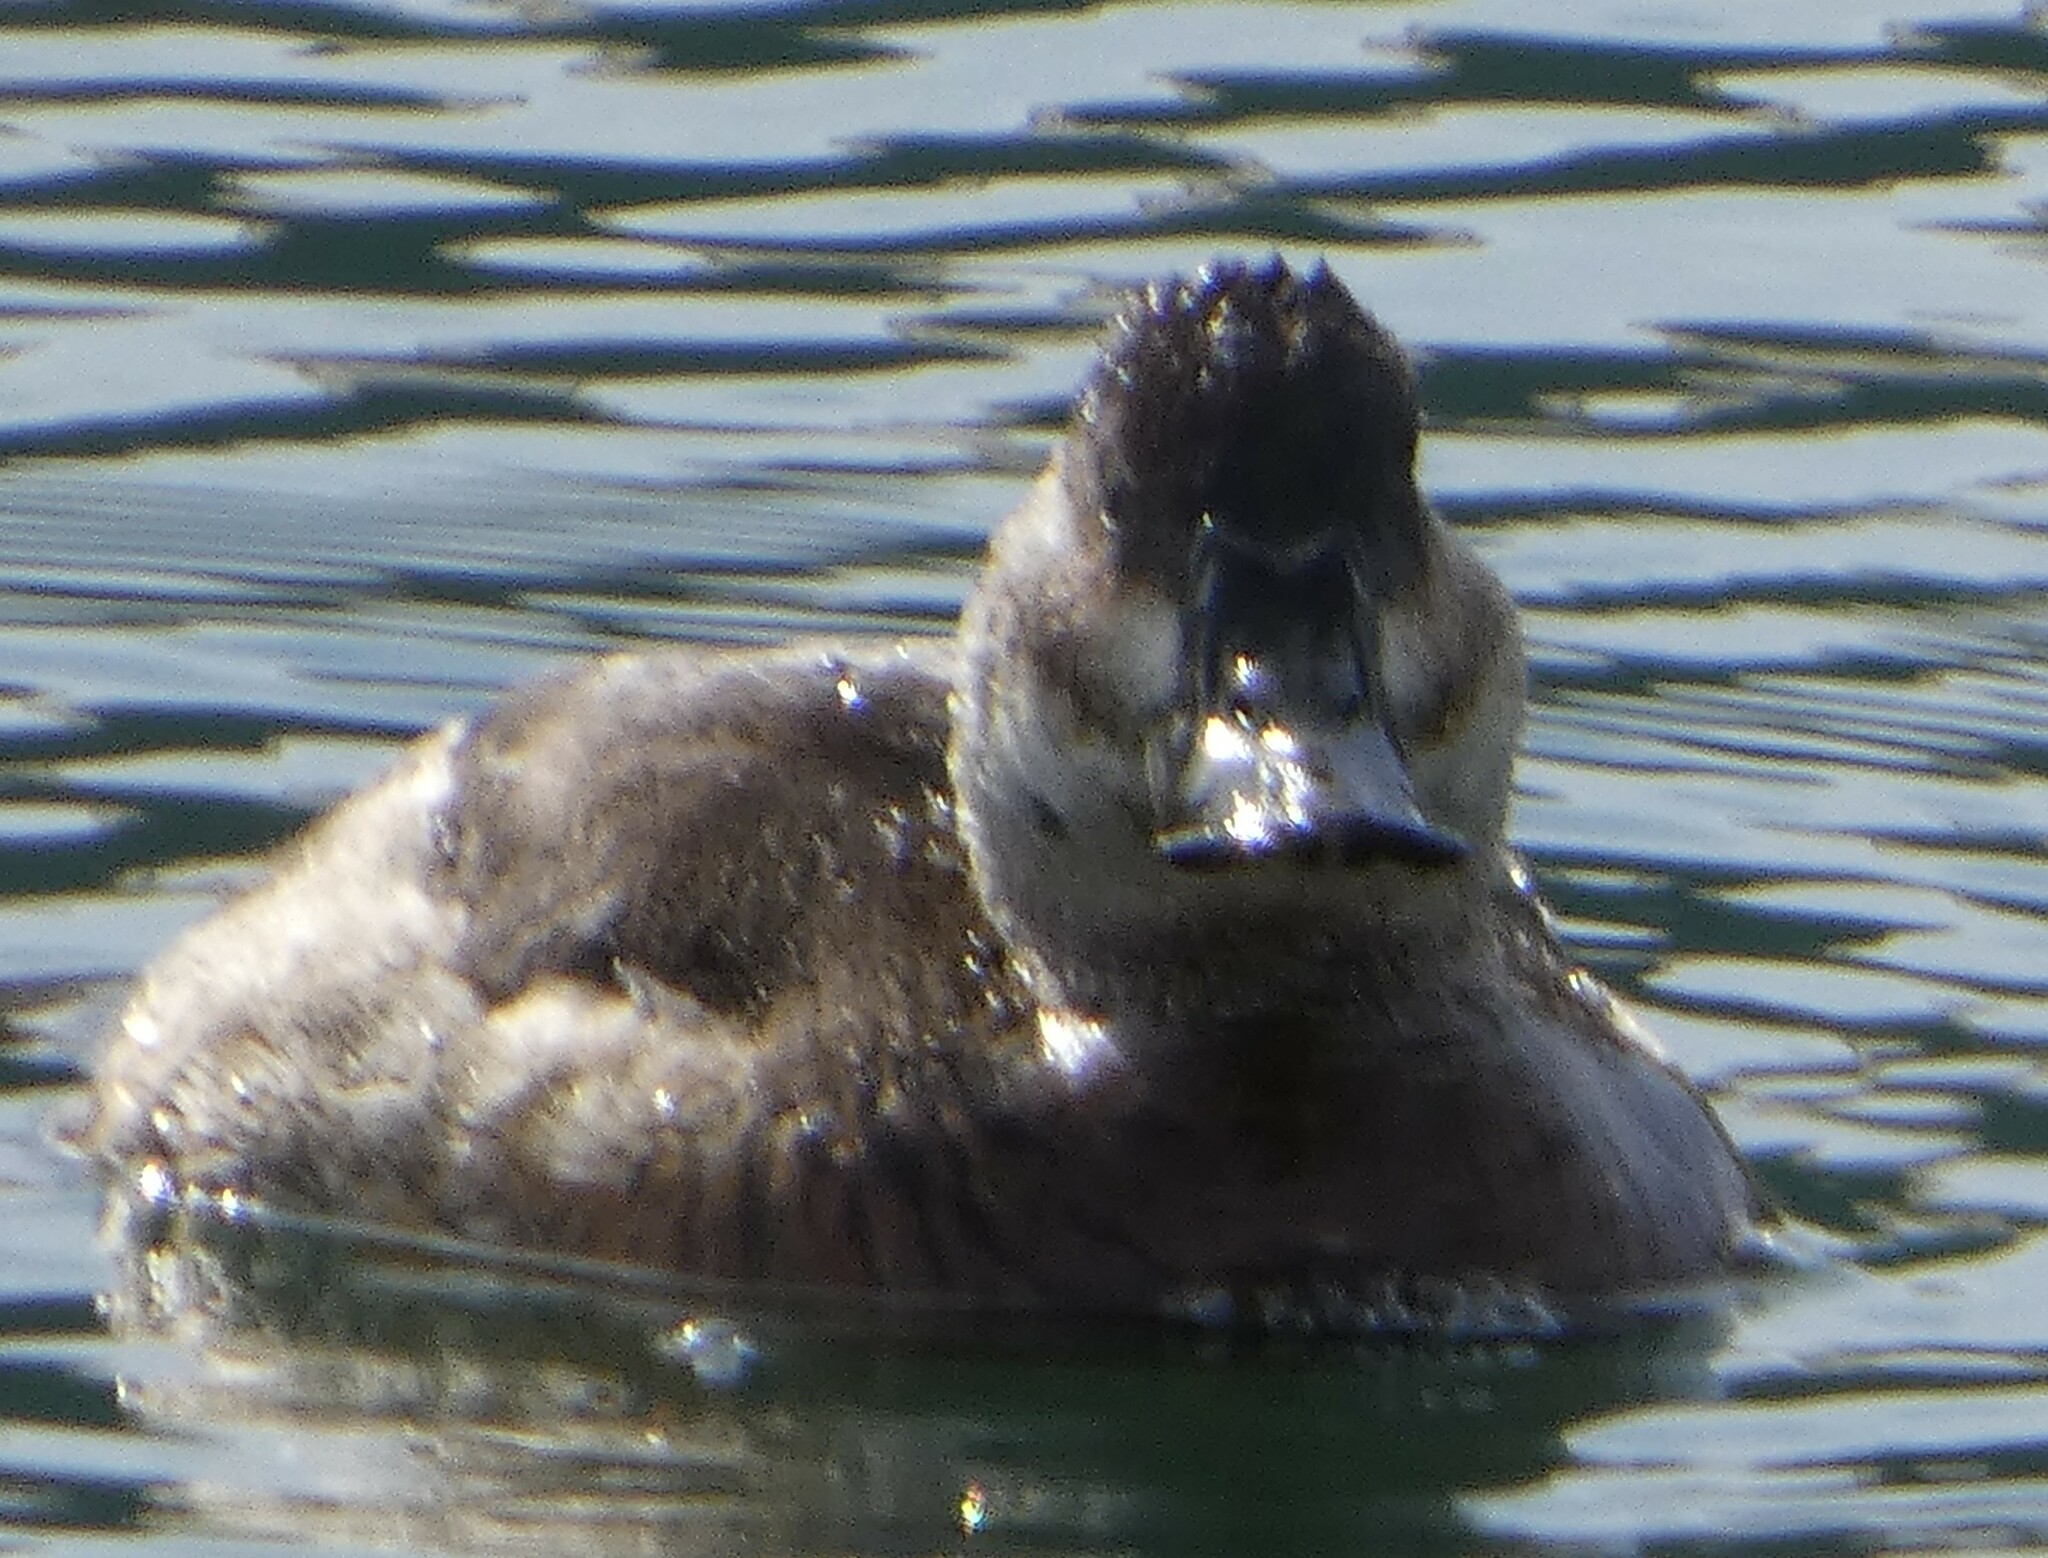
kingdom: Animalia
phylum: Chordata
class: Aves
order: Anseriformes
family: Anatidae
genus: Oxyura
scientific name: Oxyura jamaicensis
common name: Ruddy duck
